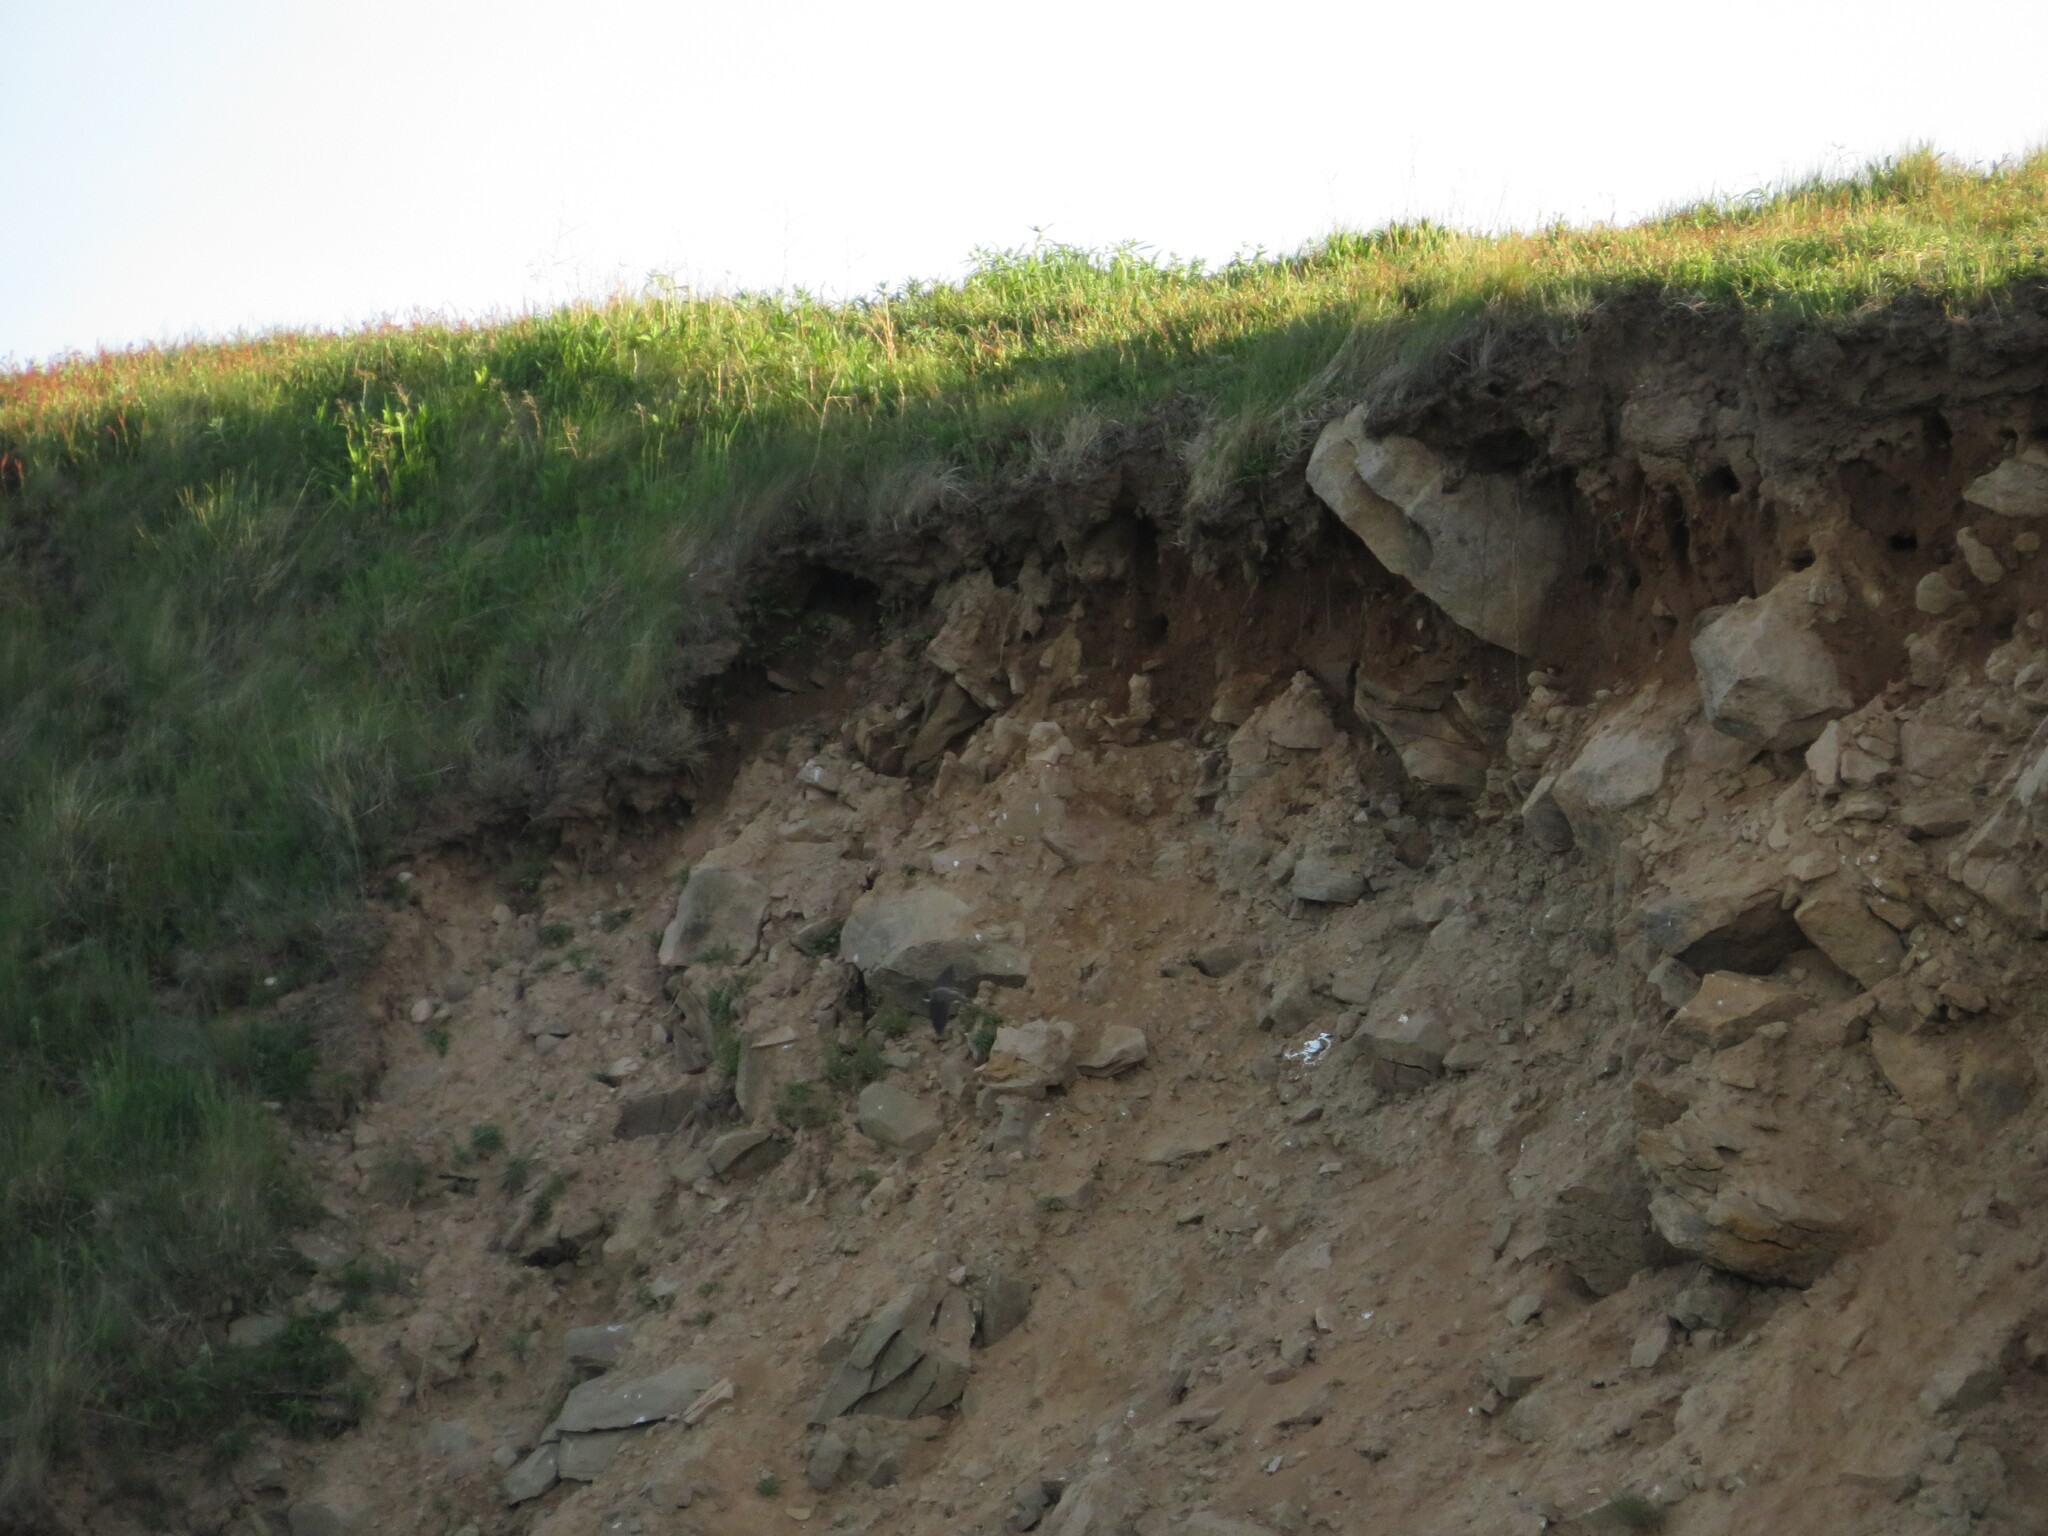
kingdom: Animalia
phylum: Chordata
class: Aves
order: Passeriformes
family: Hirundinidae
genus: Riparia
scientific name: Riparia riparia
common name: Sand martin
